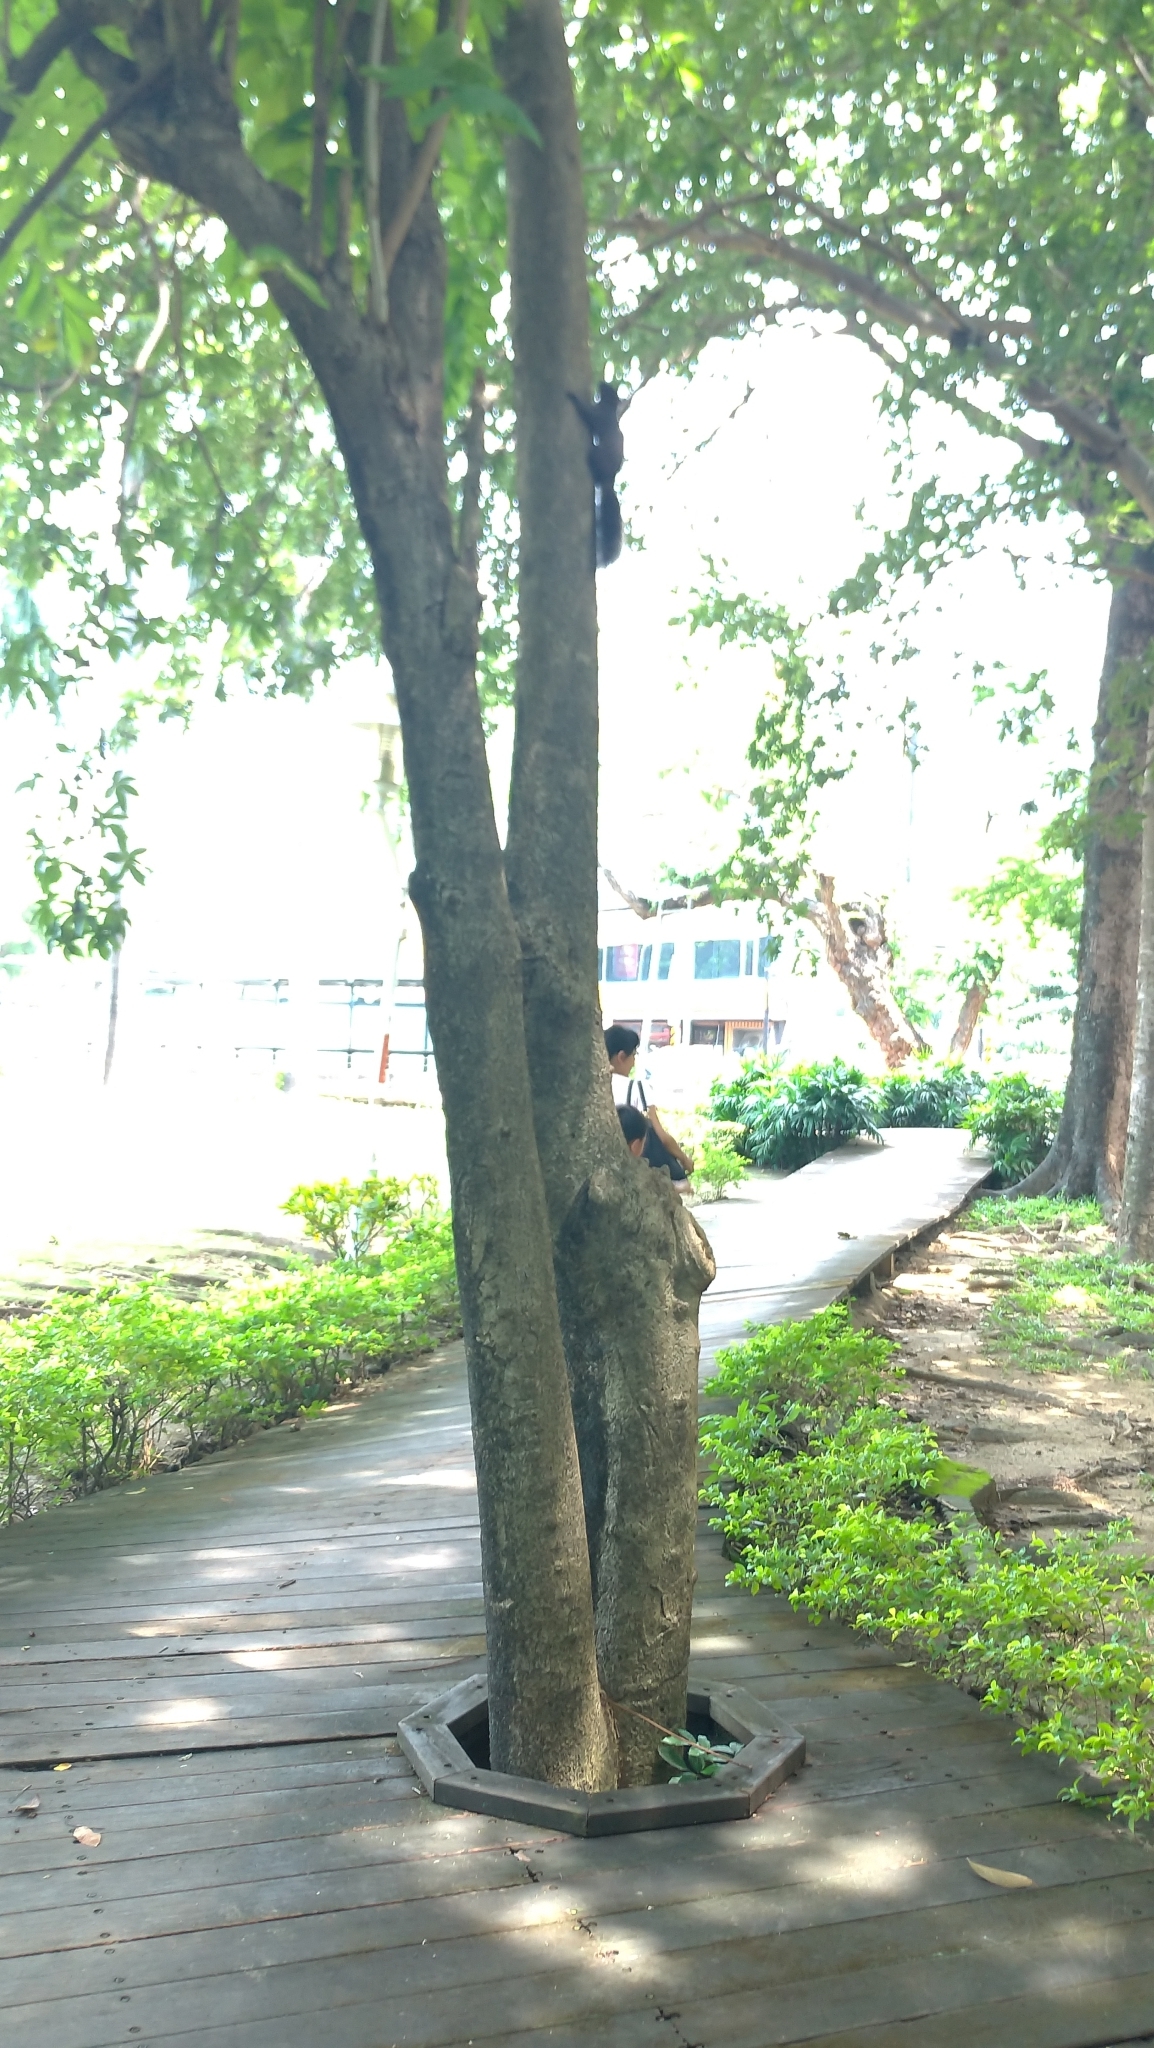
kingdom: Animalia
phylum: Chordata
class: Mammalia
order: Rodentia
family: Sciuridae
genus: Callosciurus
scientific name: Callosciurus erythraeus
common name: Pallas's squirrel
